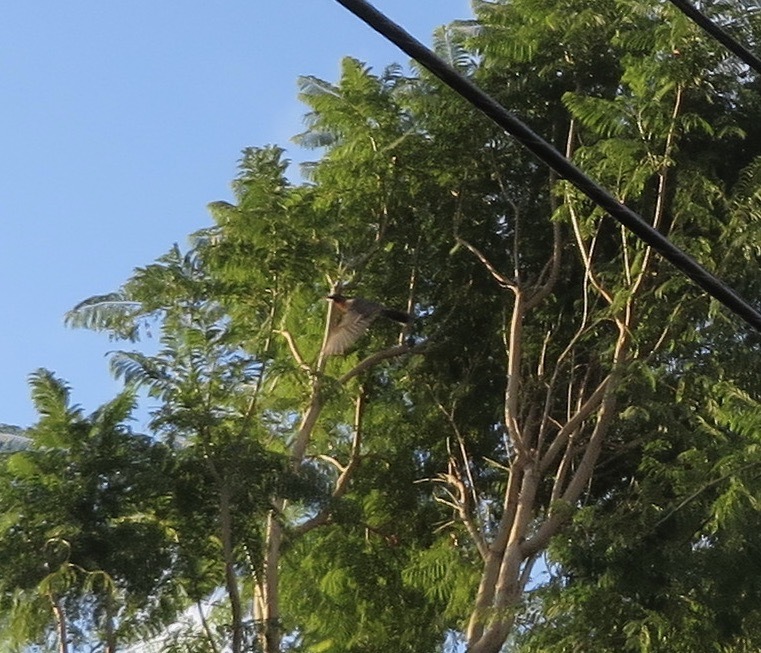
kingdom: Animalia
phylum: Chordata
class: Aves
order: Passeriformes
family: Turdidae
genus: Turdus
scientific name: Turdus migratorius
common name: American robin
